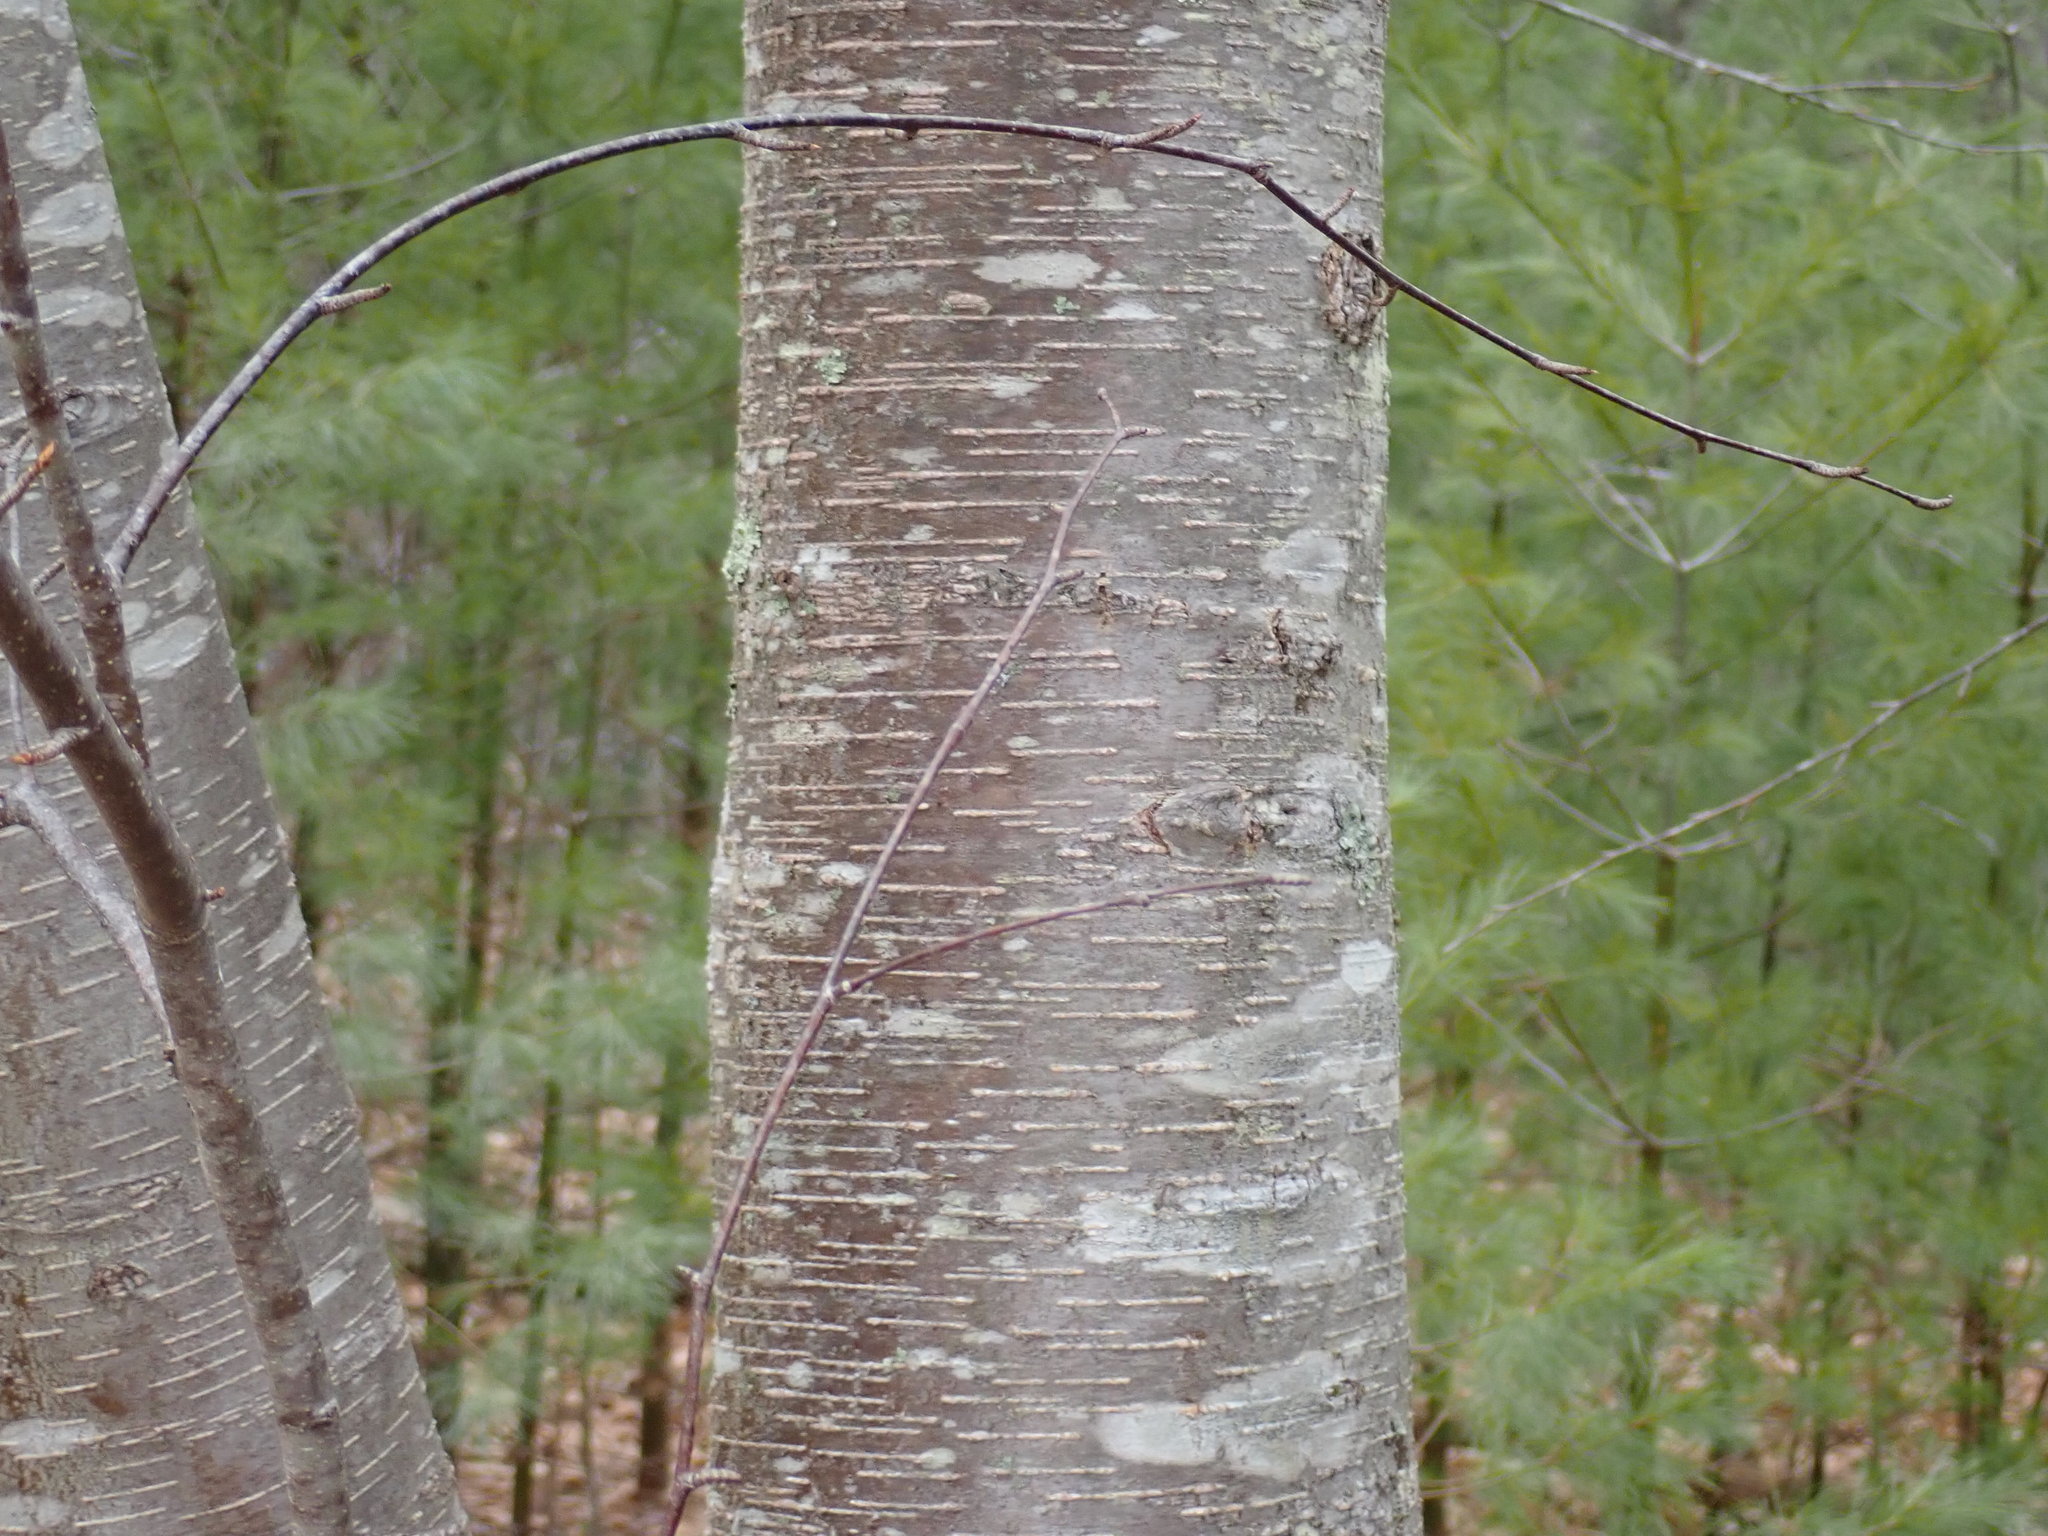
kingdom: Plantae
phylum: Tracheophyta
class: Magnoliopsida
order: Fagales
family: Betulaceae
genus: Betula
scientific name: Betula lenta
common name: Black birch
